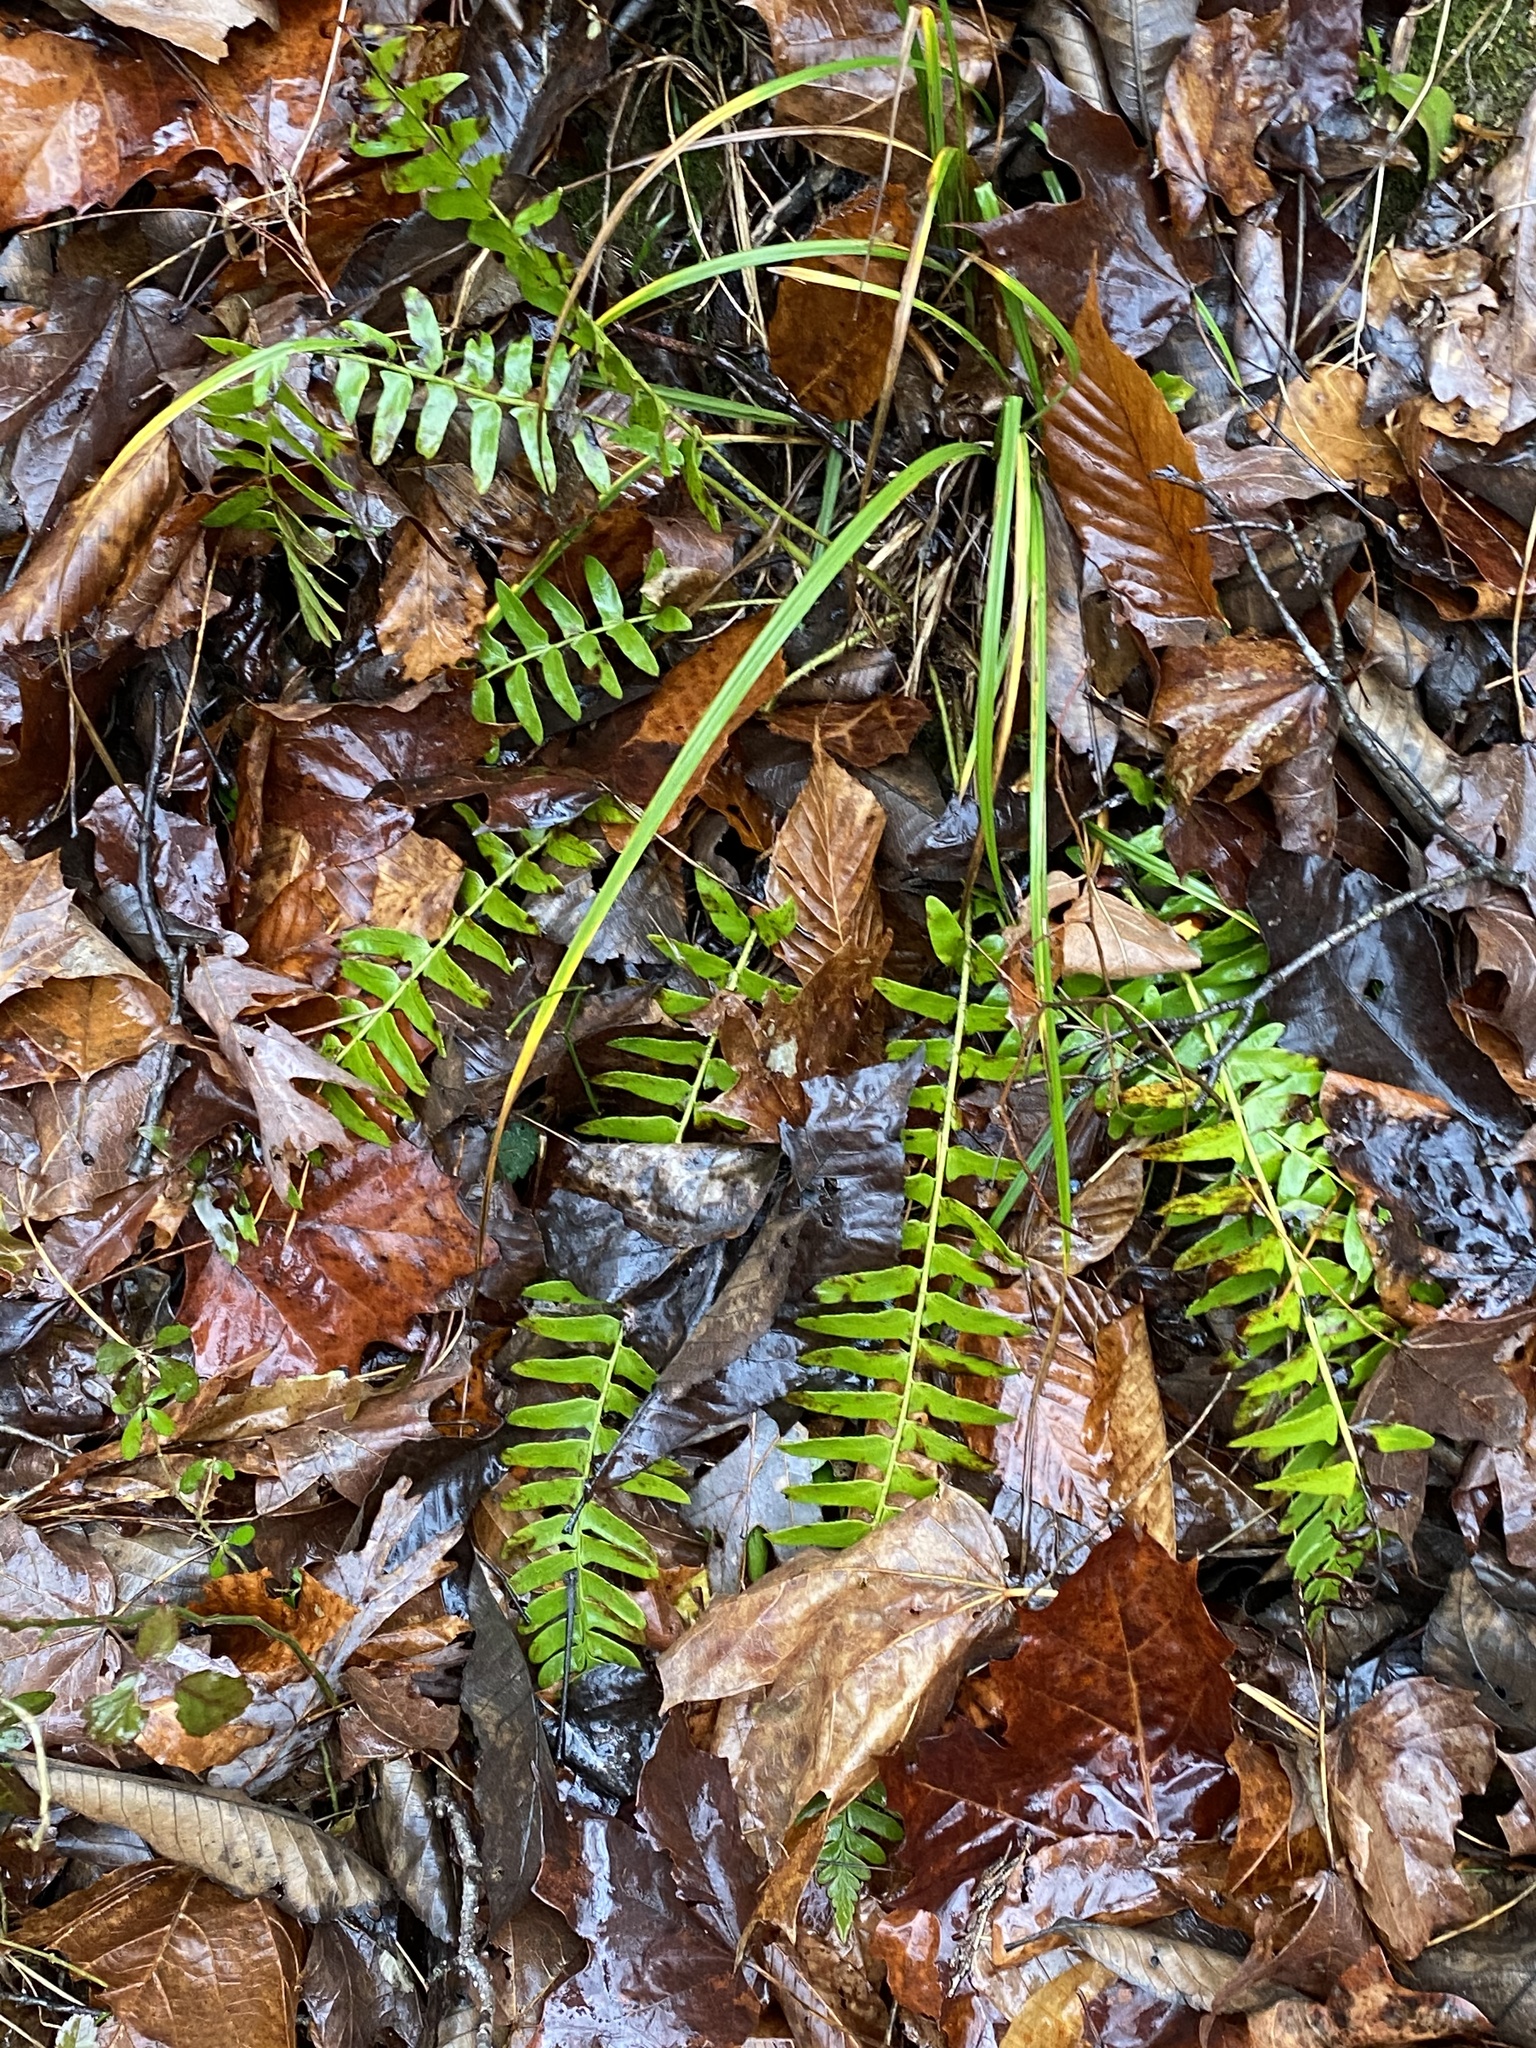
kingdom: Plantae
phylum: Tracheophyta
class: Polypodiopsida
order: Polypodiales
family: Dryopteridaceae
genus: Polystichum
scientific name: Polystichum acrostichoides
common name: Christmas fern
